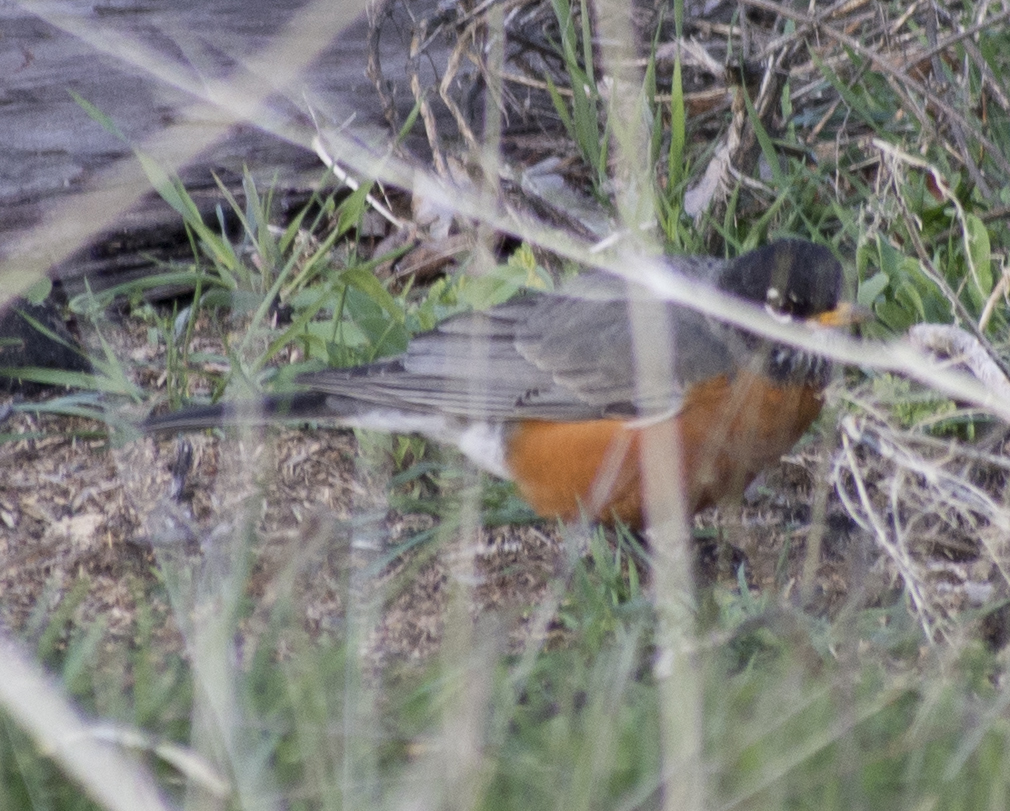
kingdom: Animalia
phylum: Chordata
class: Aves
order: Passeriformes
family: Turdidae
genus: Turdus
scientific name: Turdus migratorius
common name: American robin
